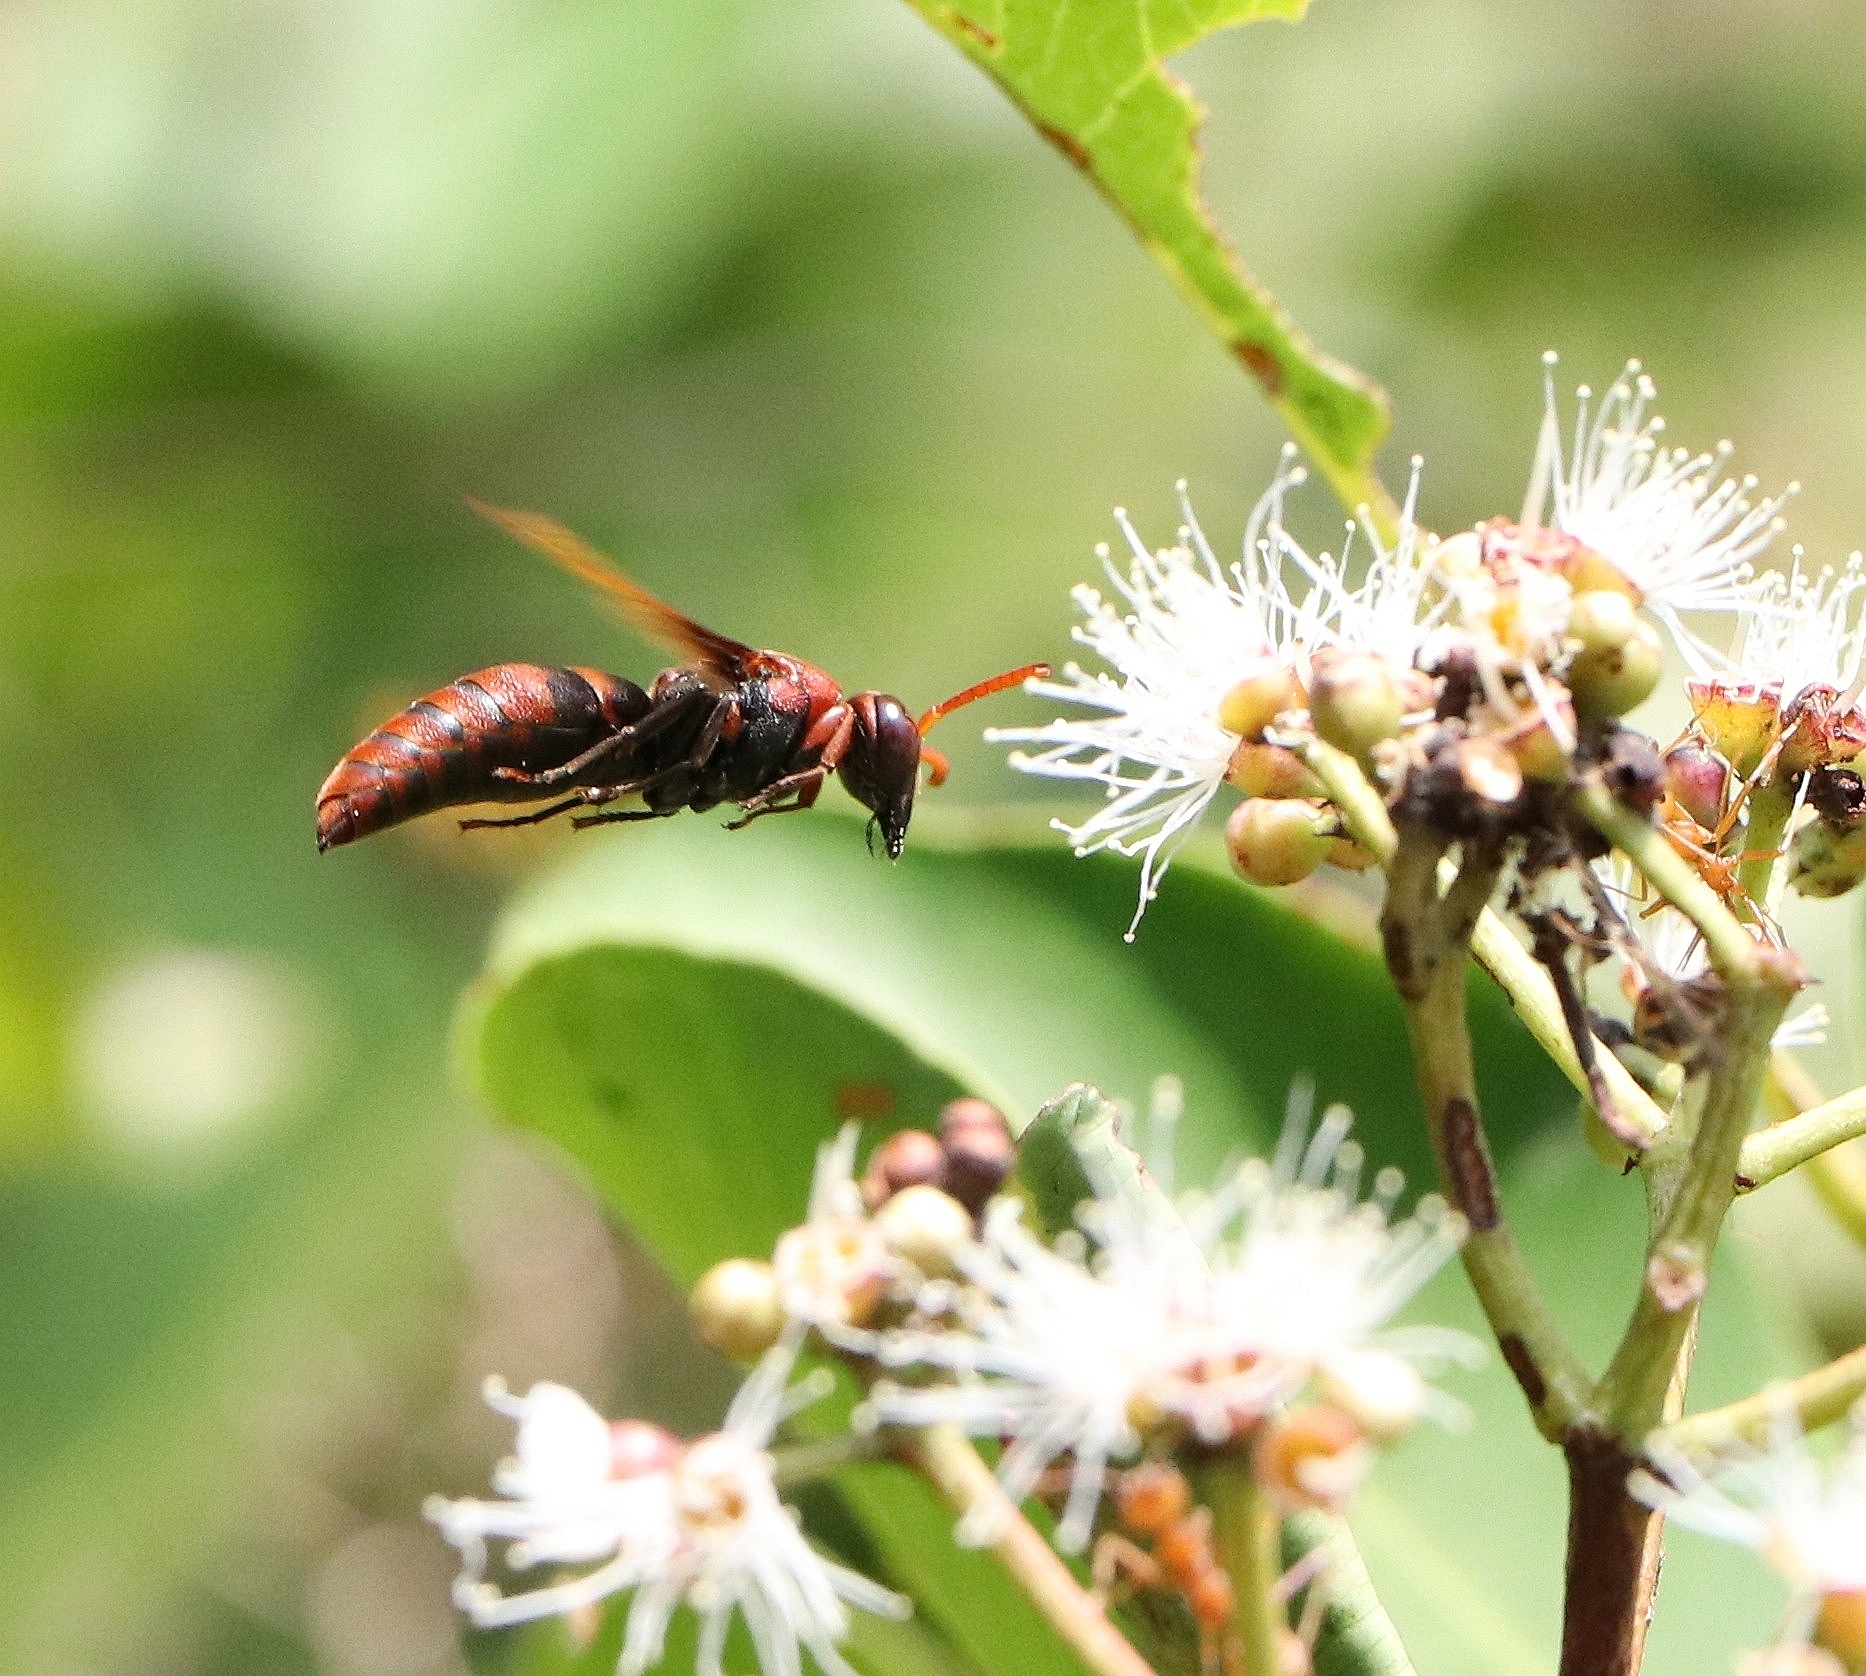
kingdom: Animalia
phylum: Arthropoda
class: Insecta
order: Hymenoptera
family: Eumenidae
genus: Rhynchium
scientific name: Rhynchium brunneum
